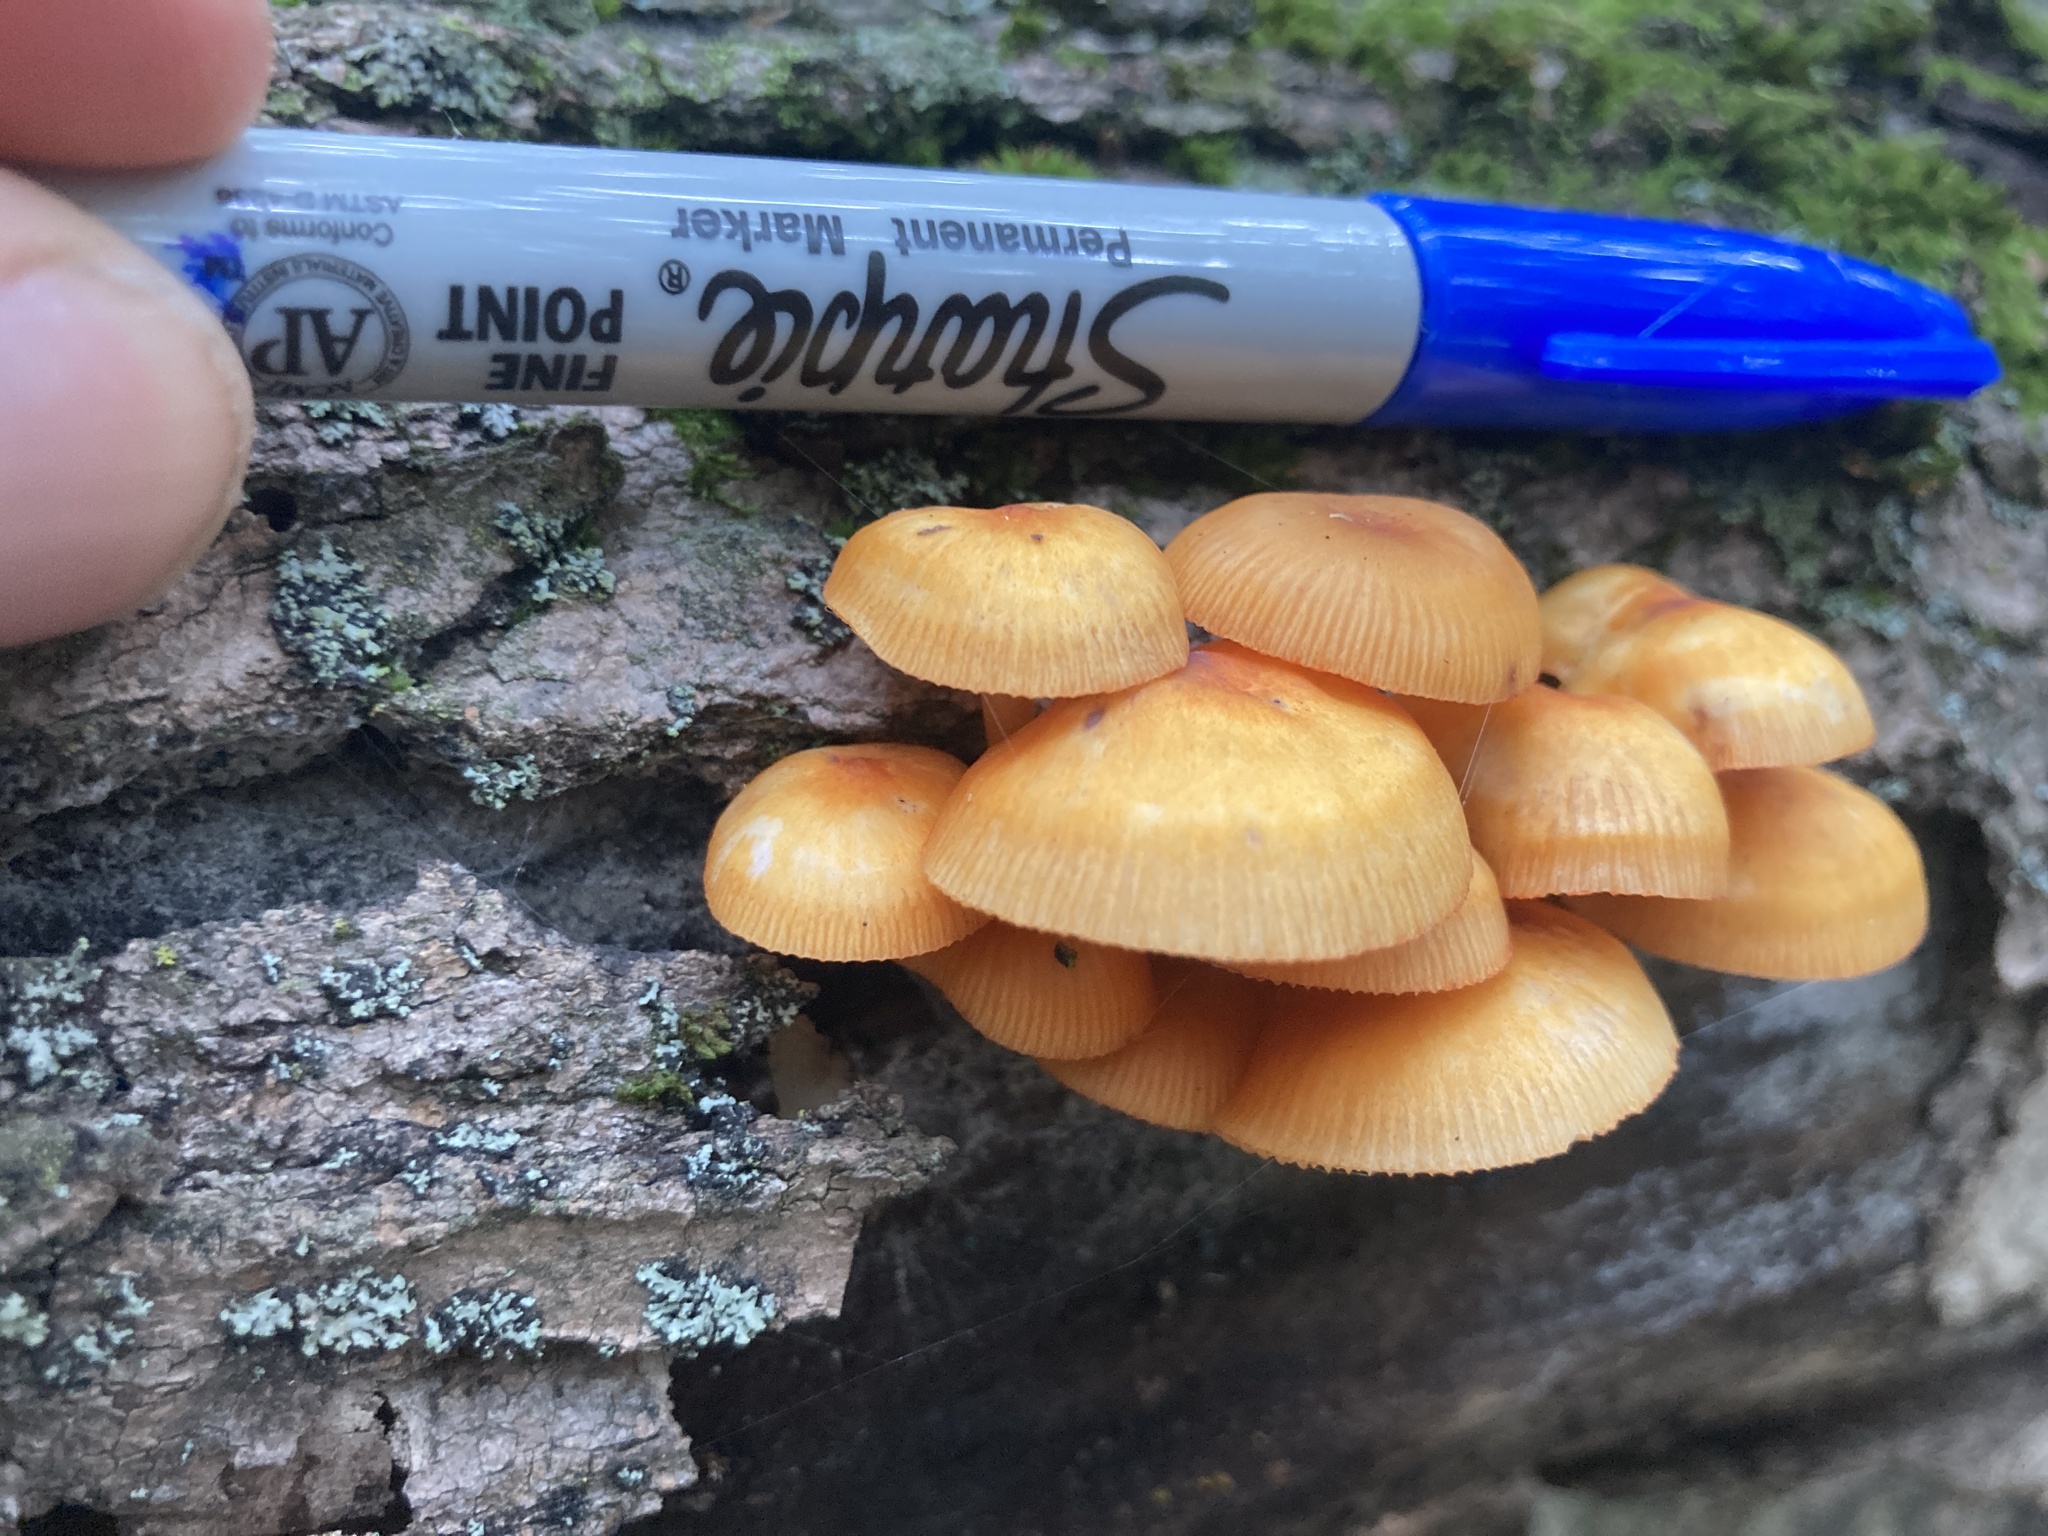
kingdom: Fungi
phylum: Basidiomycota
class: Agaricomycetes
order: Agaricales
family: Mycenaceae
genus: Mycena
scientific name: Mycena leaiana
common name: Orange mycena
